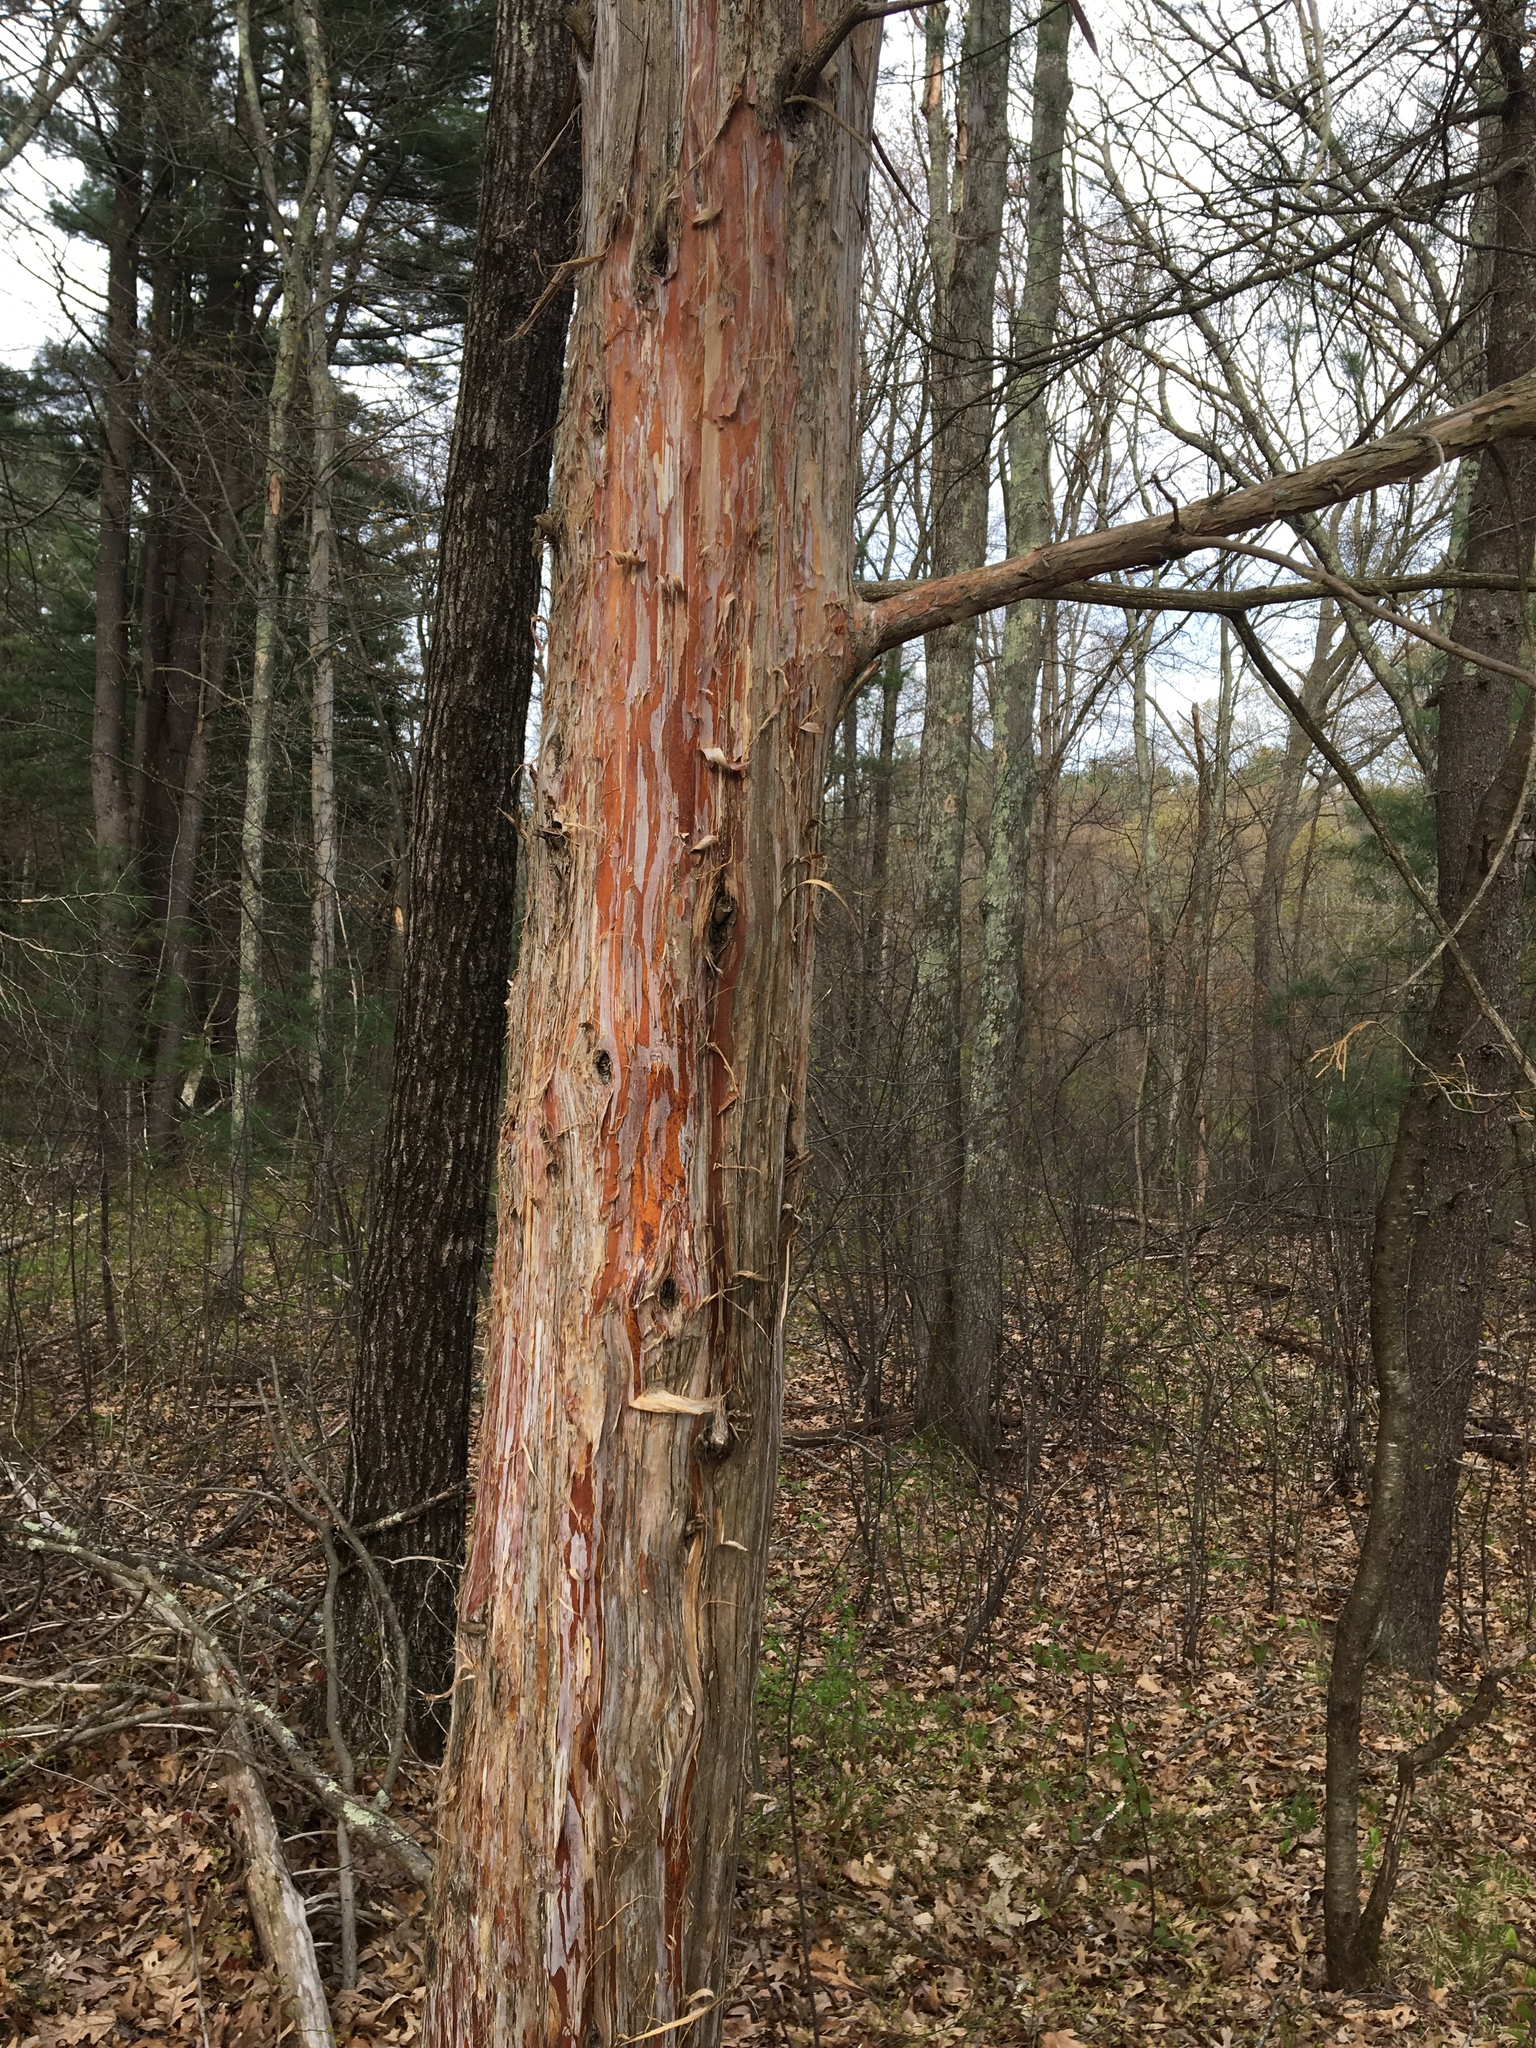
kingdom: Plantae
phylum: Tracheophyta
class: Pinopsida
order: Pinales
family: Cupressaceae
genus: Juniperus
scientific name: Juniperus virginiana
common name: Red juniper
